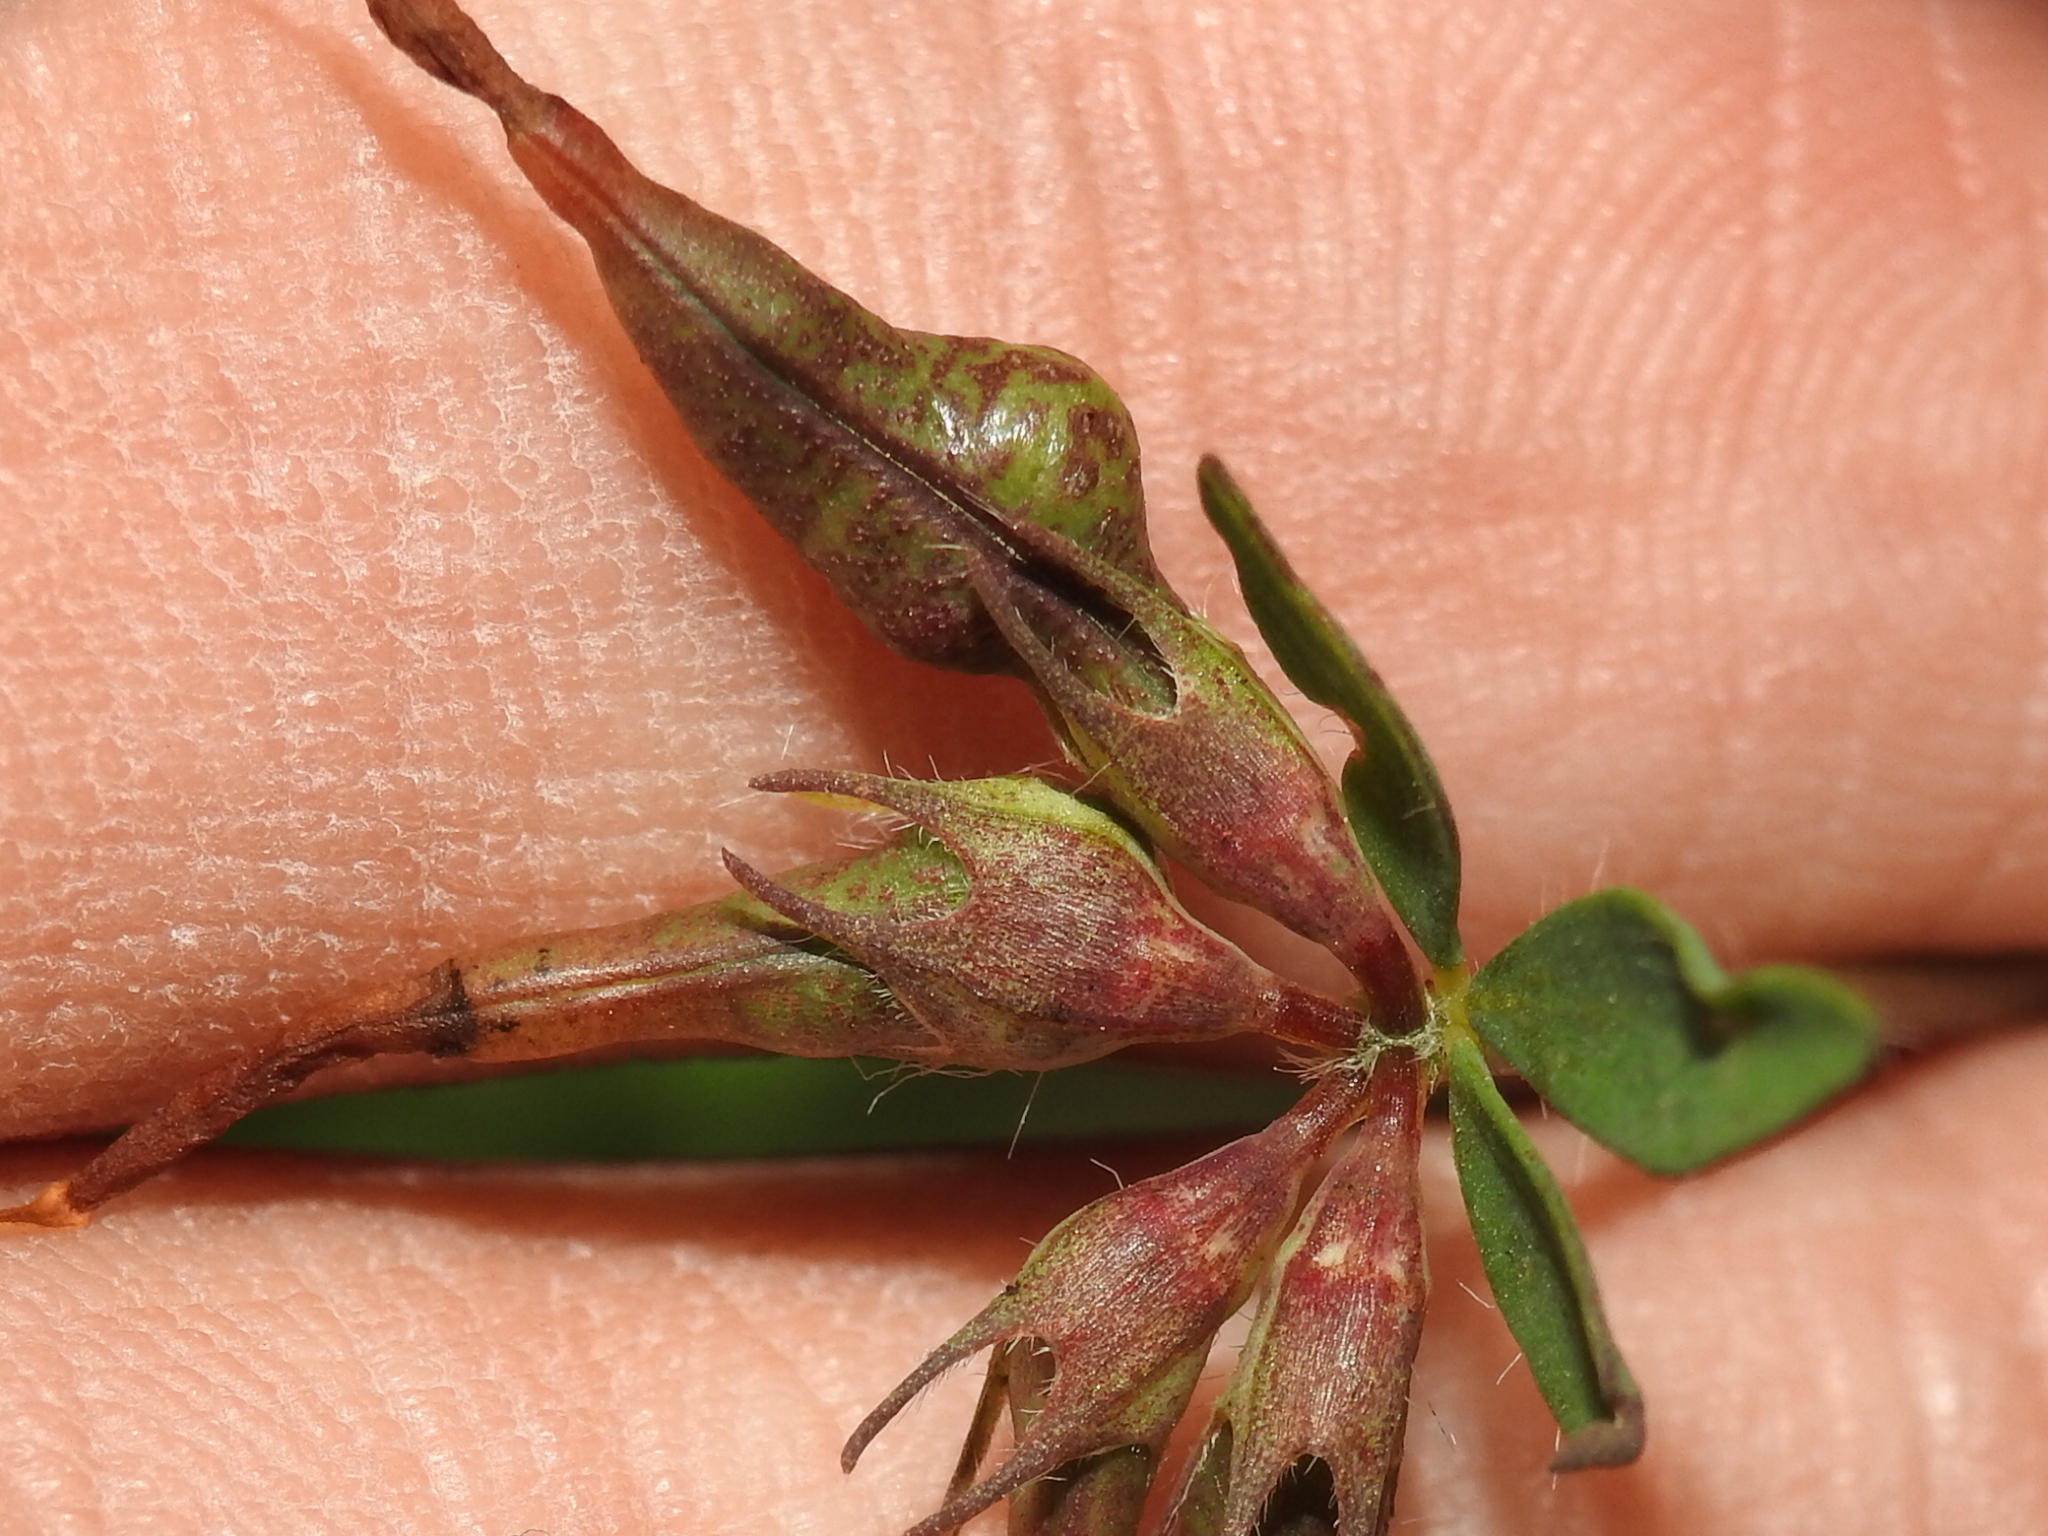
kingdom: Animalia
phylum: Arthropoda
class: Insecta
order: Diptera
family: Cecidomyiidae
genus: Asphondylia
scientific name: Asphondylia melanopus
